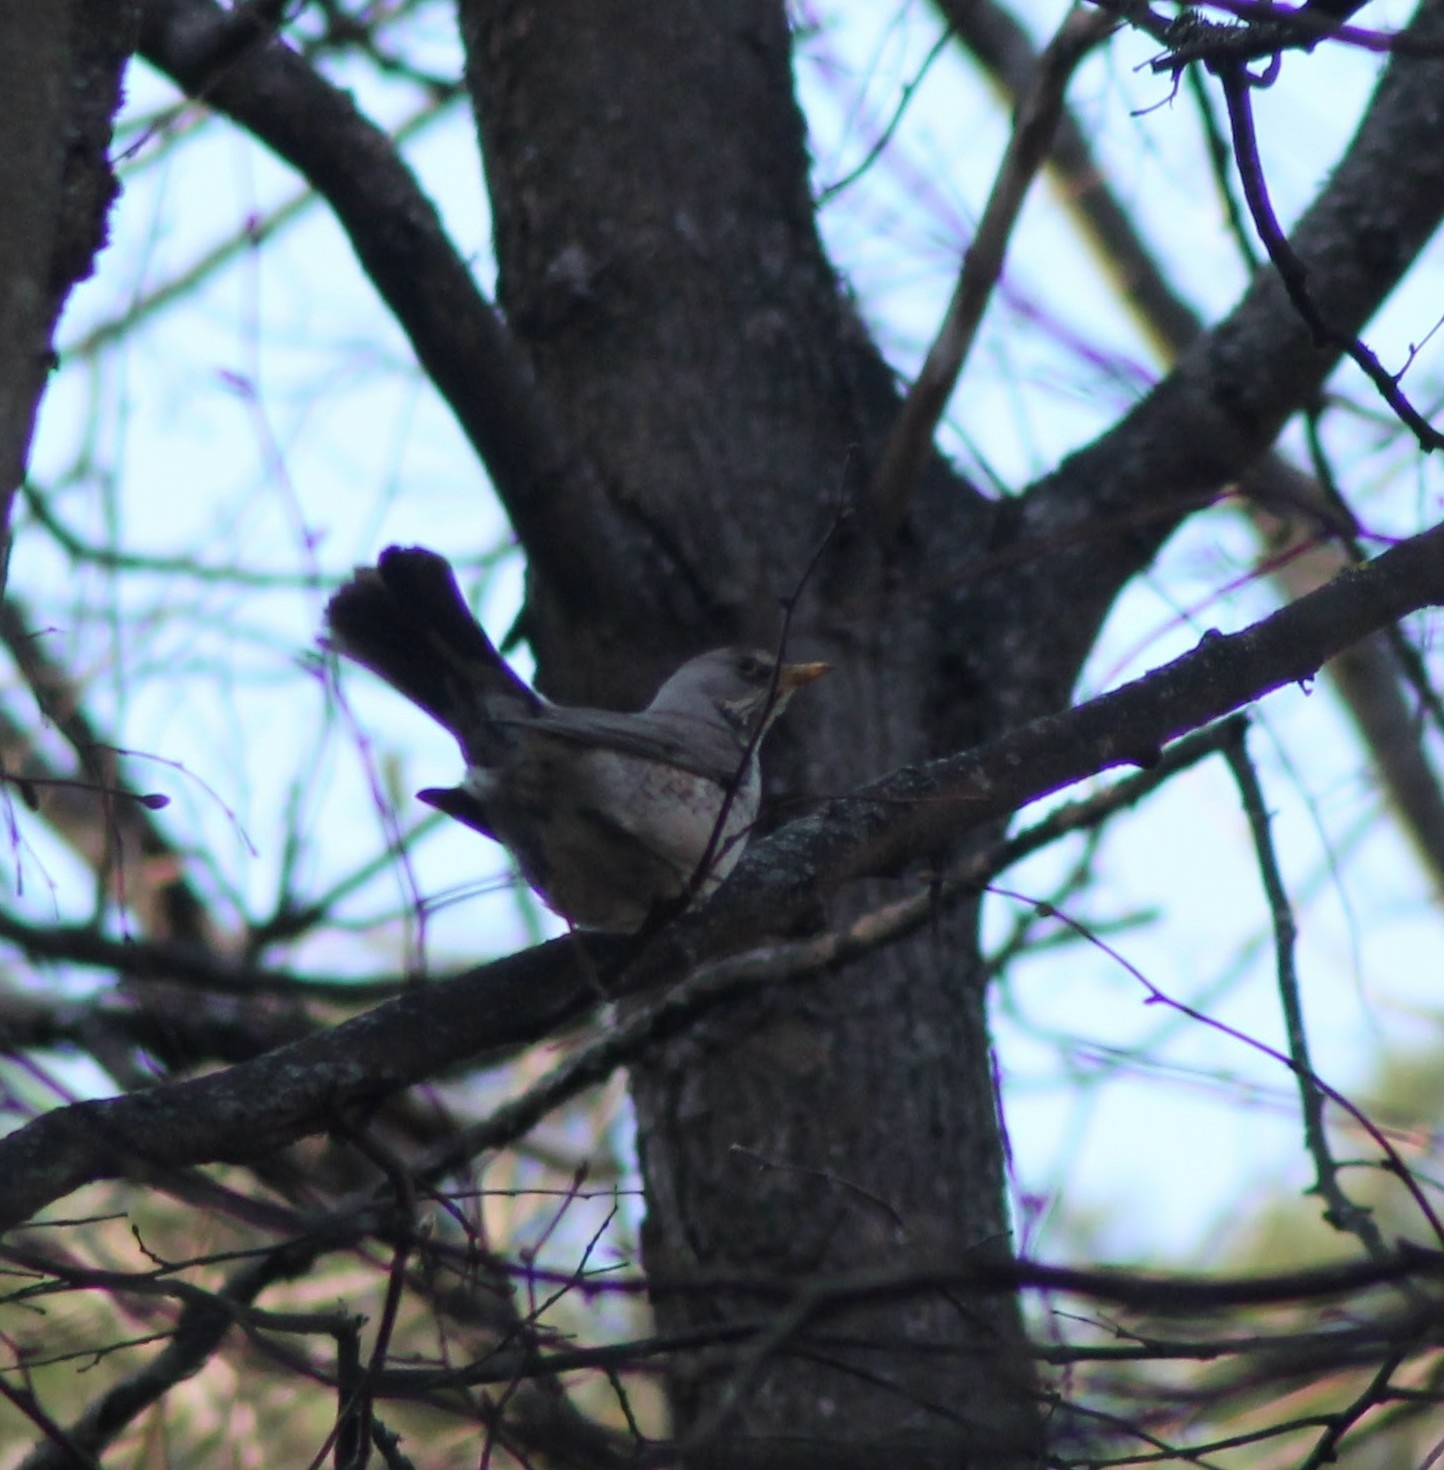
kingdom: Animalia
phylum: Chordata
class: Aves
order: Passeriformes
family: Turdidae
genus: Turdus
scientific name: Turdus pilaris
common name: Fieldfare
